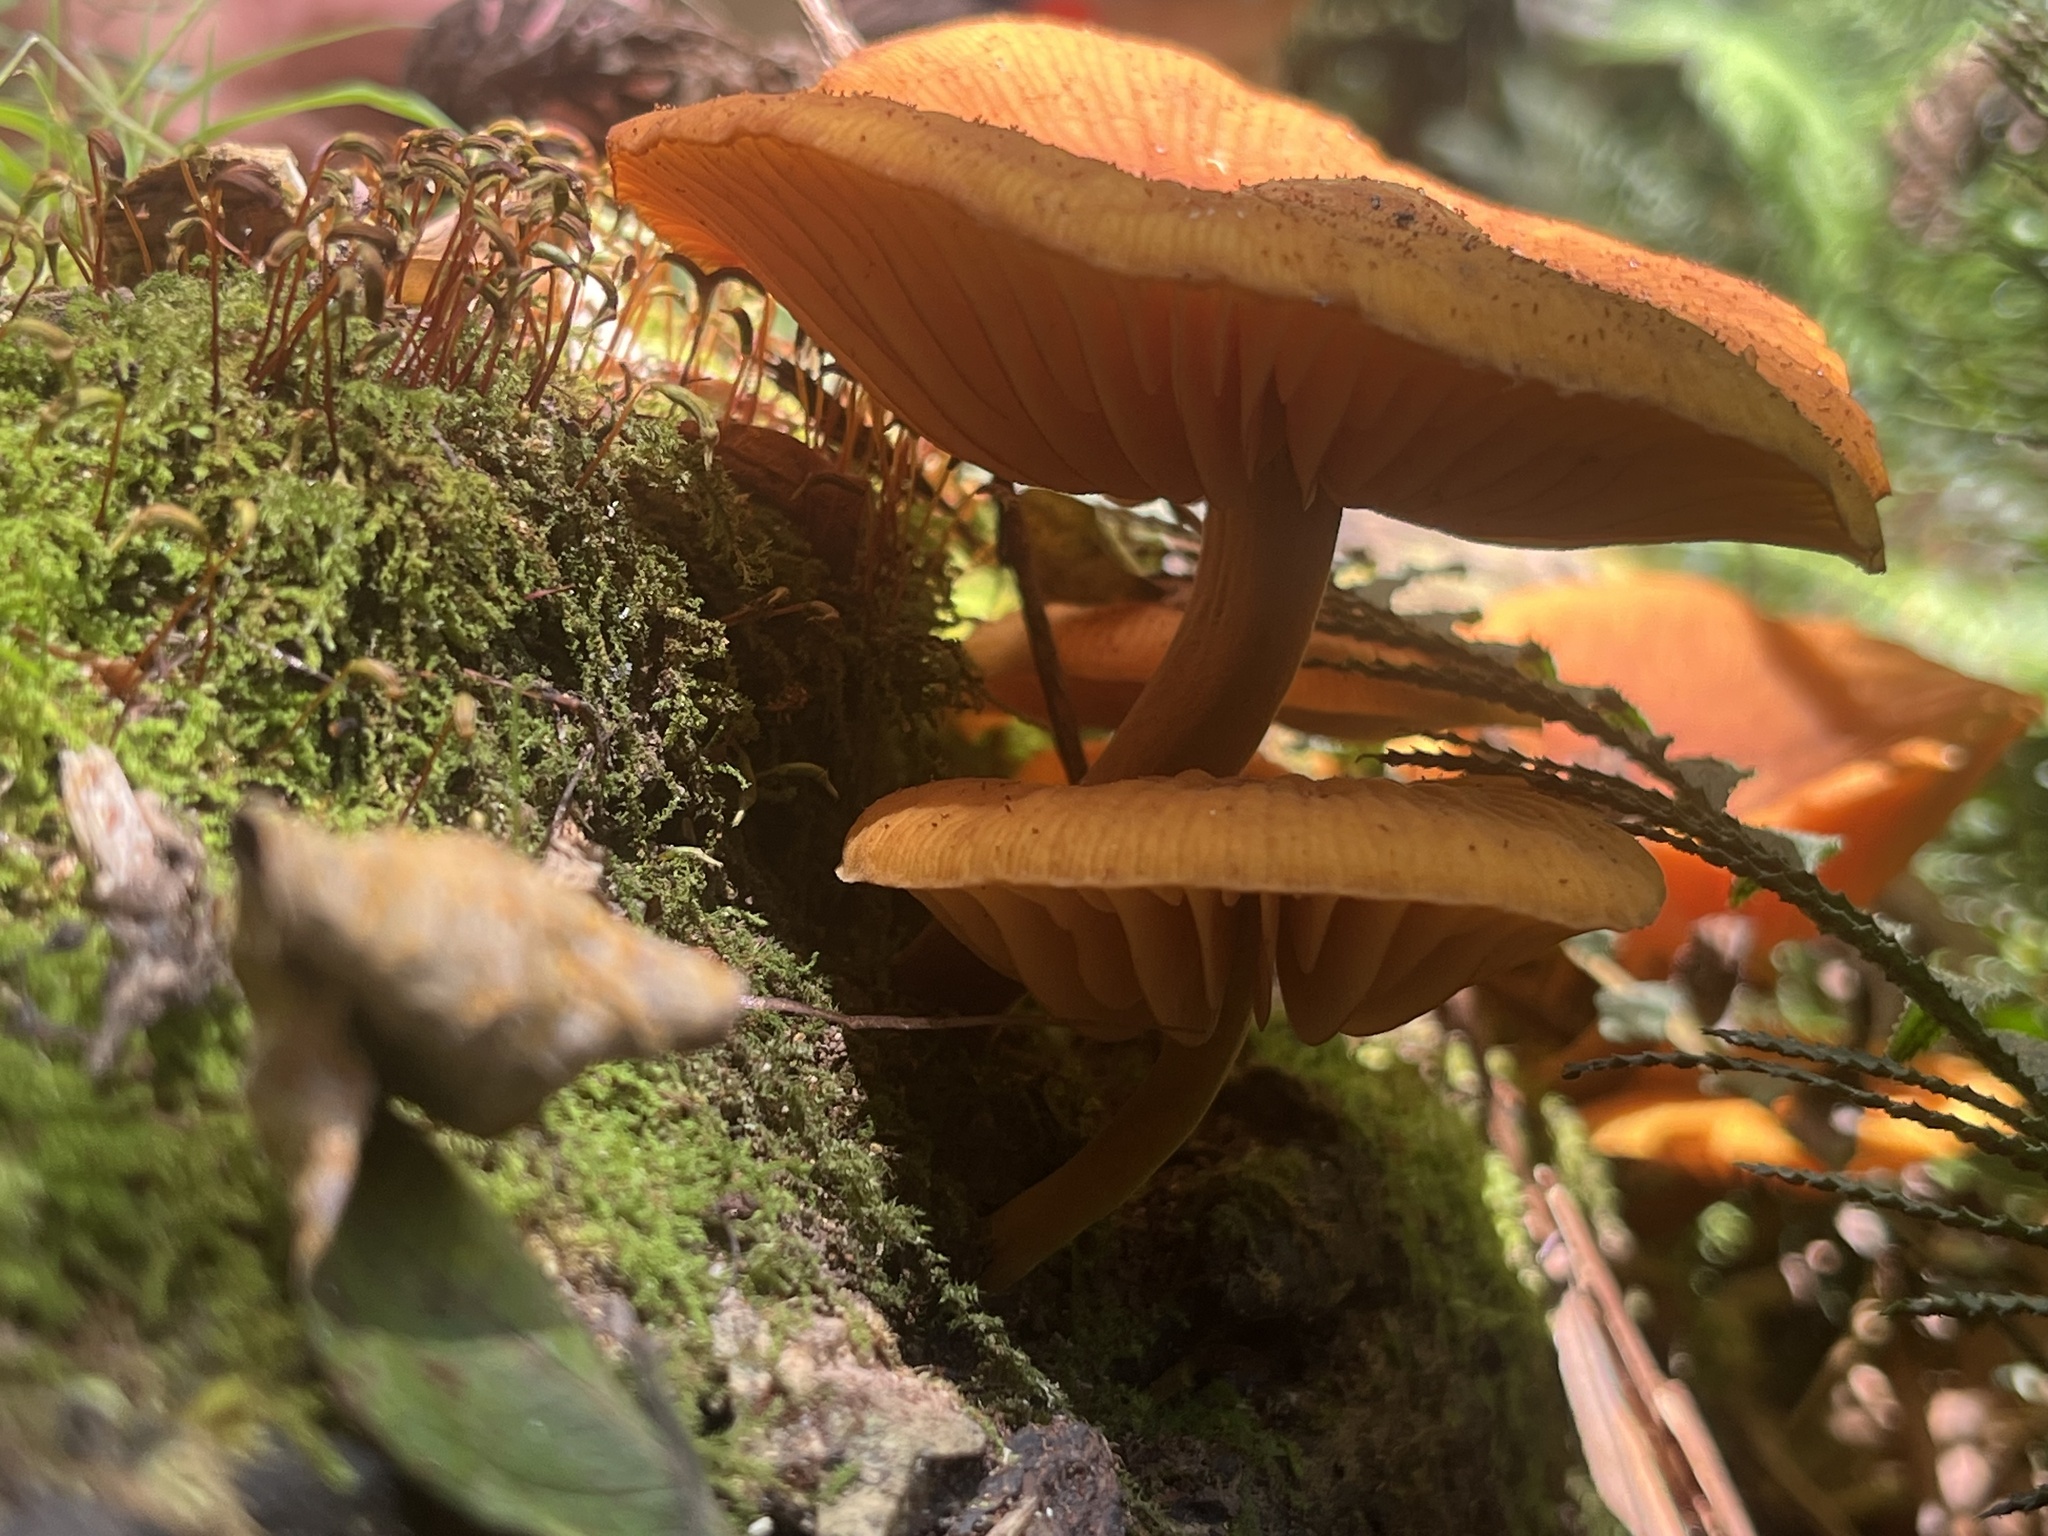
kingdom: Fungi
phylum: Basidiomycota
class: Agaricomycetes
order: Agaricales
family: Mycenaceae
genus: Heimiomyces
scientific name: Heimiomyces velutipes
